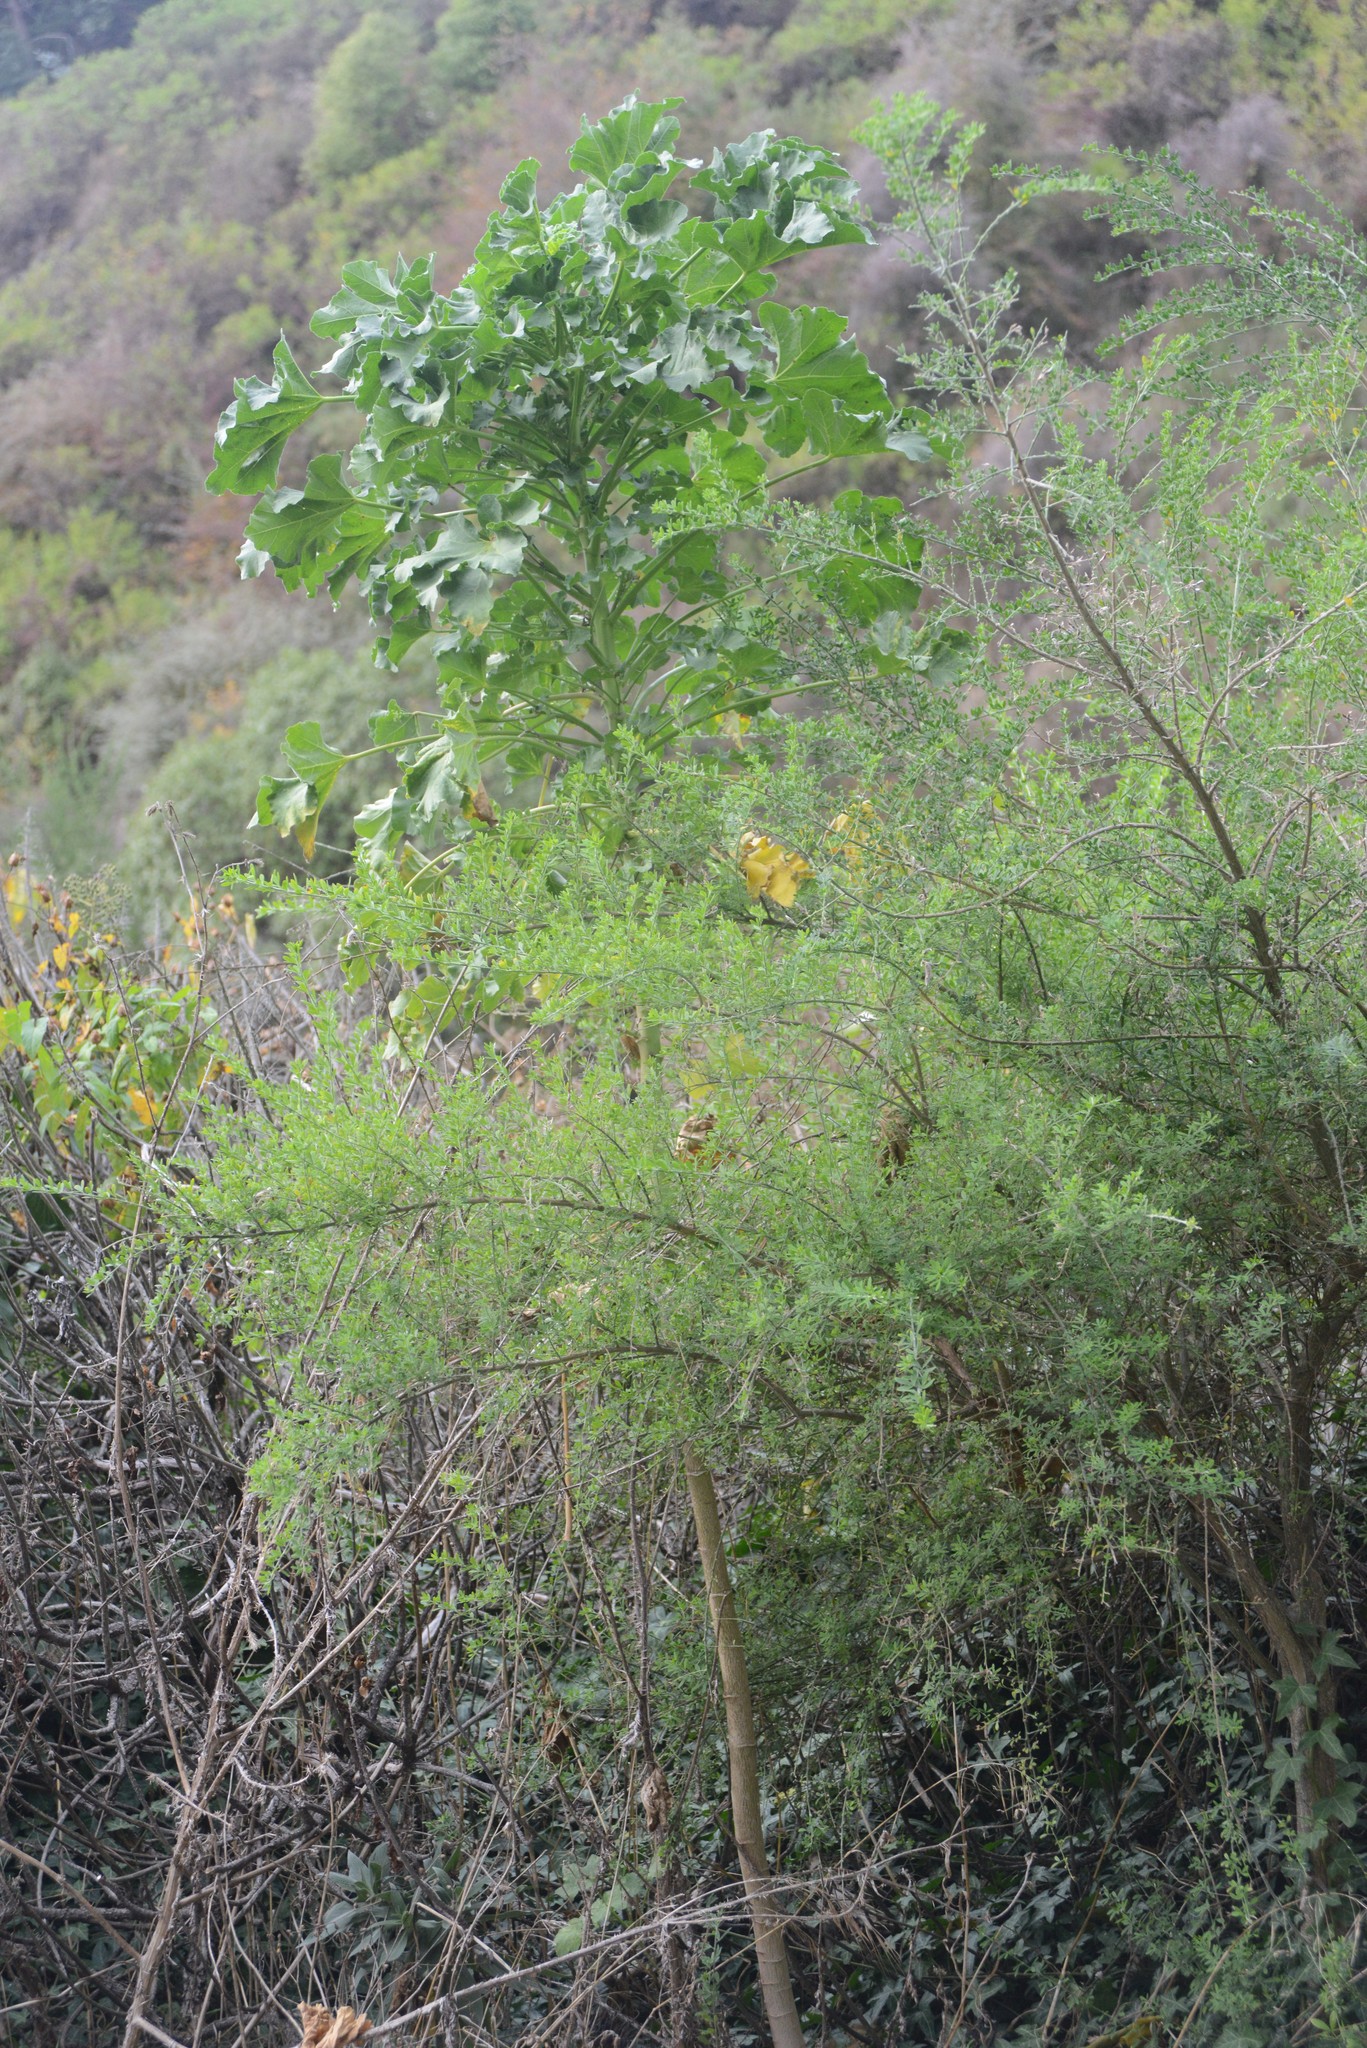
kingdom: Plantae
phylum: Tracheophyta
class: Magnoliopsida
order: Malvales
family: Malvaceae
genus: Malva
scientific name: Malva arborea
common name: Tree mallow
